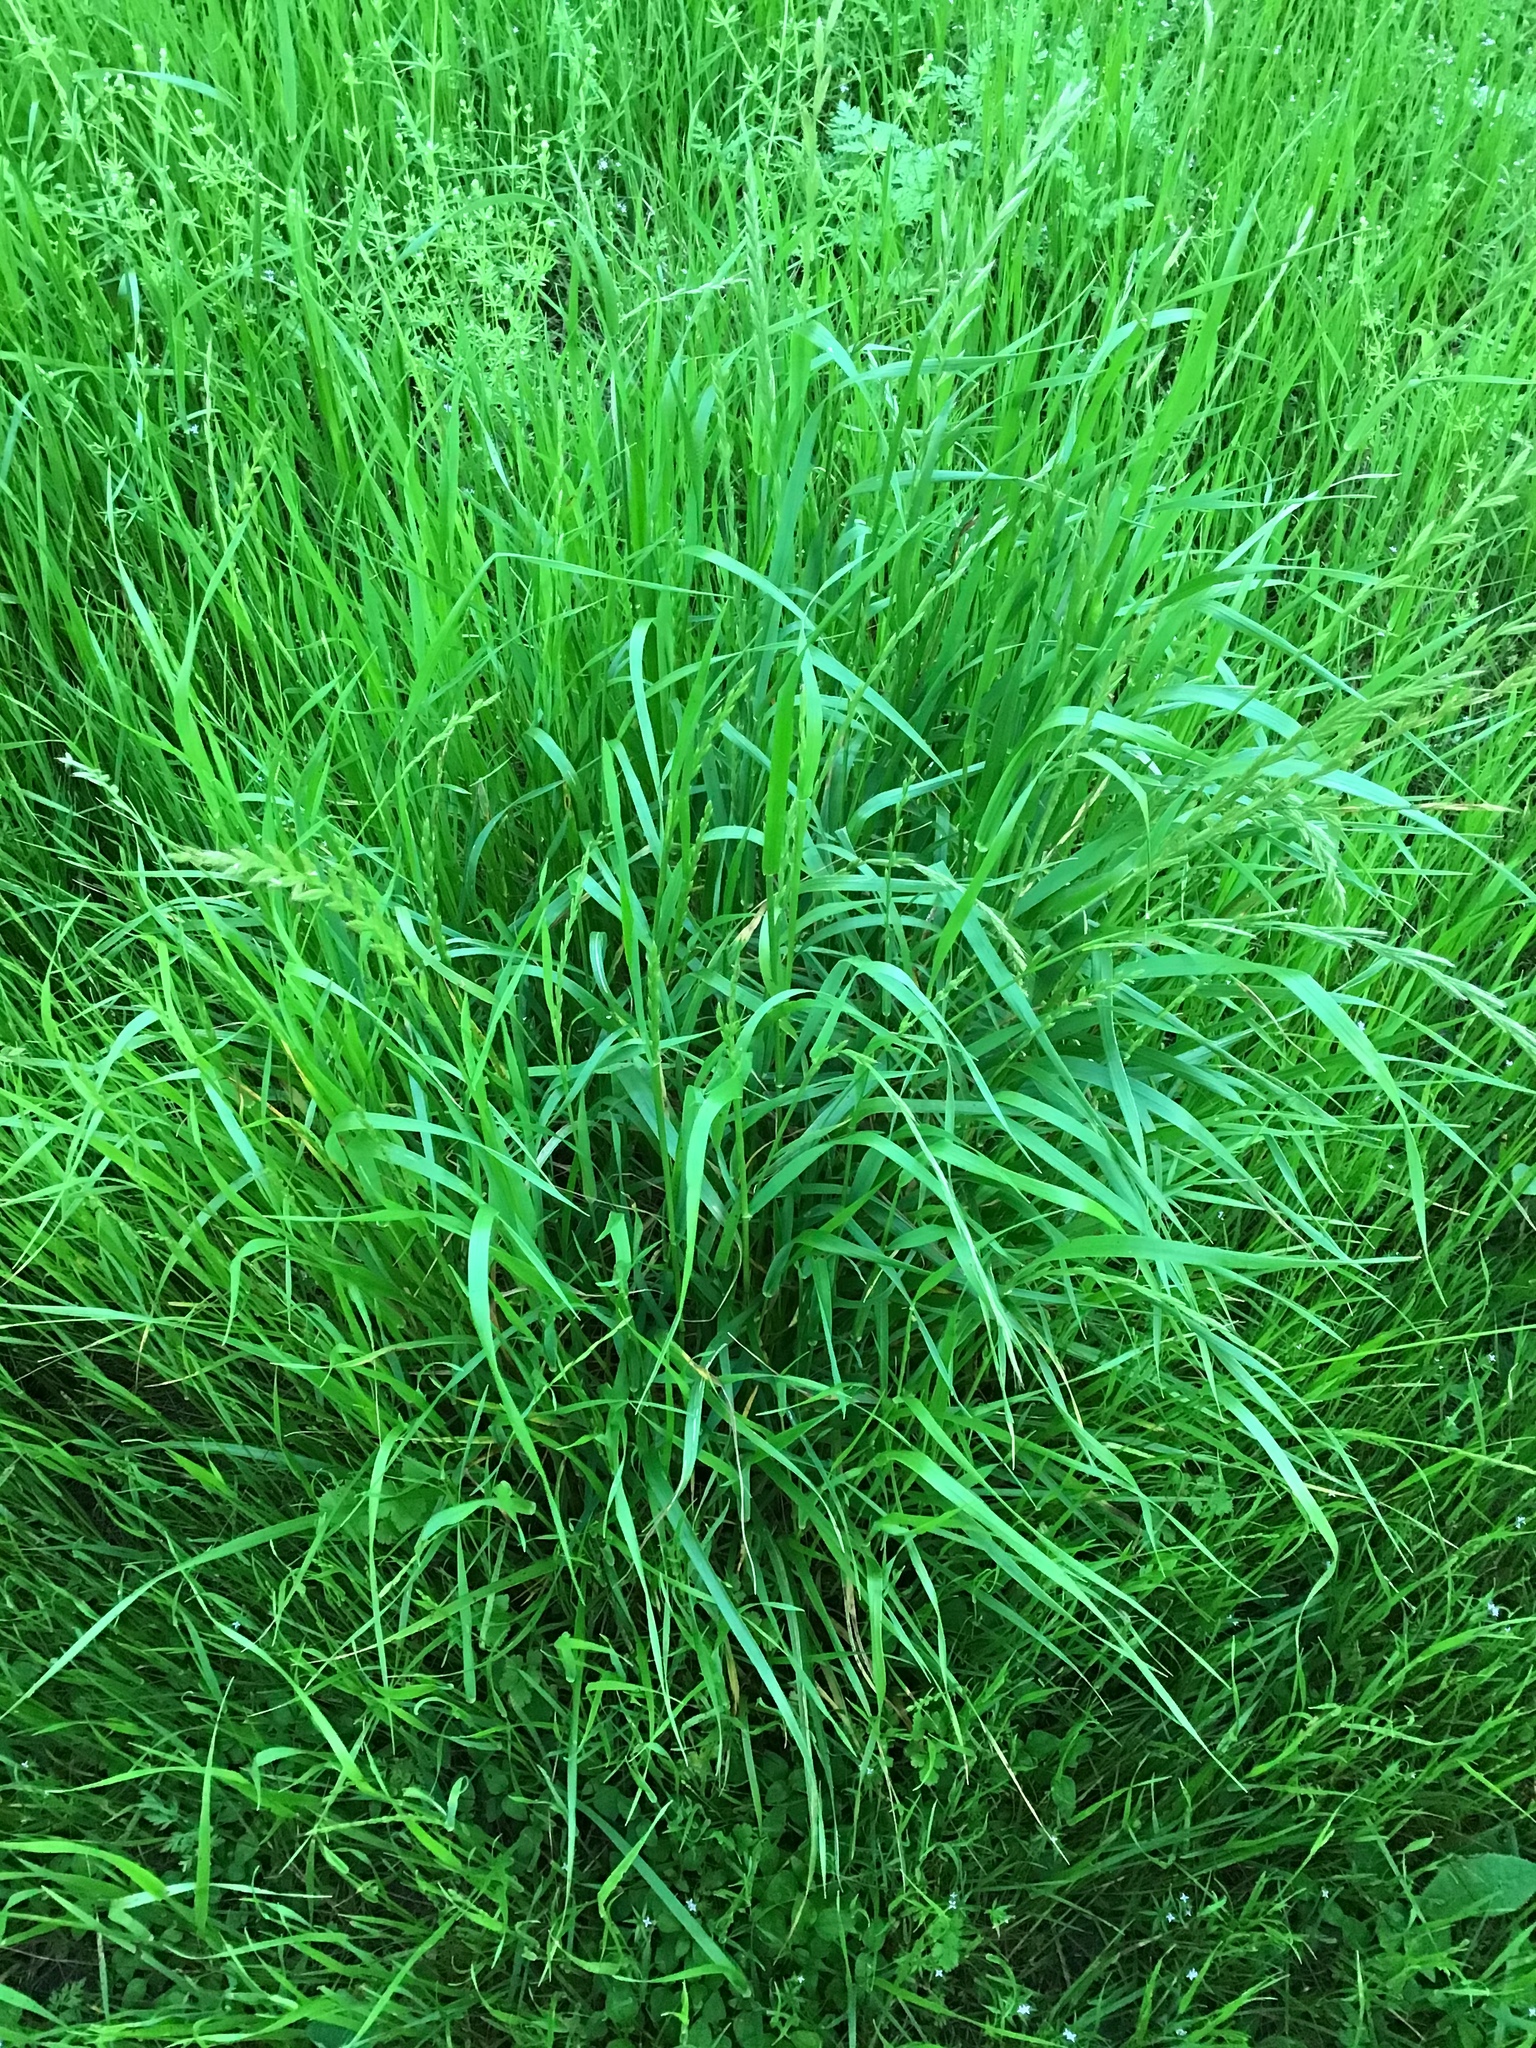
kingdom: Plantae
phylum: Tracheophyta
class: Liliopsida
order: Poales
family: Poaceae
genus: Lolium
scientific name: Lolium multiflorum
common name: Annual ryegrass
